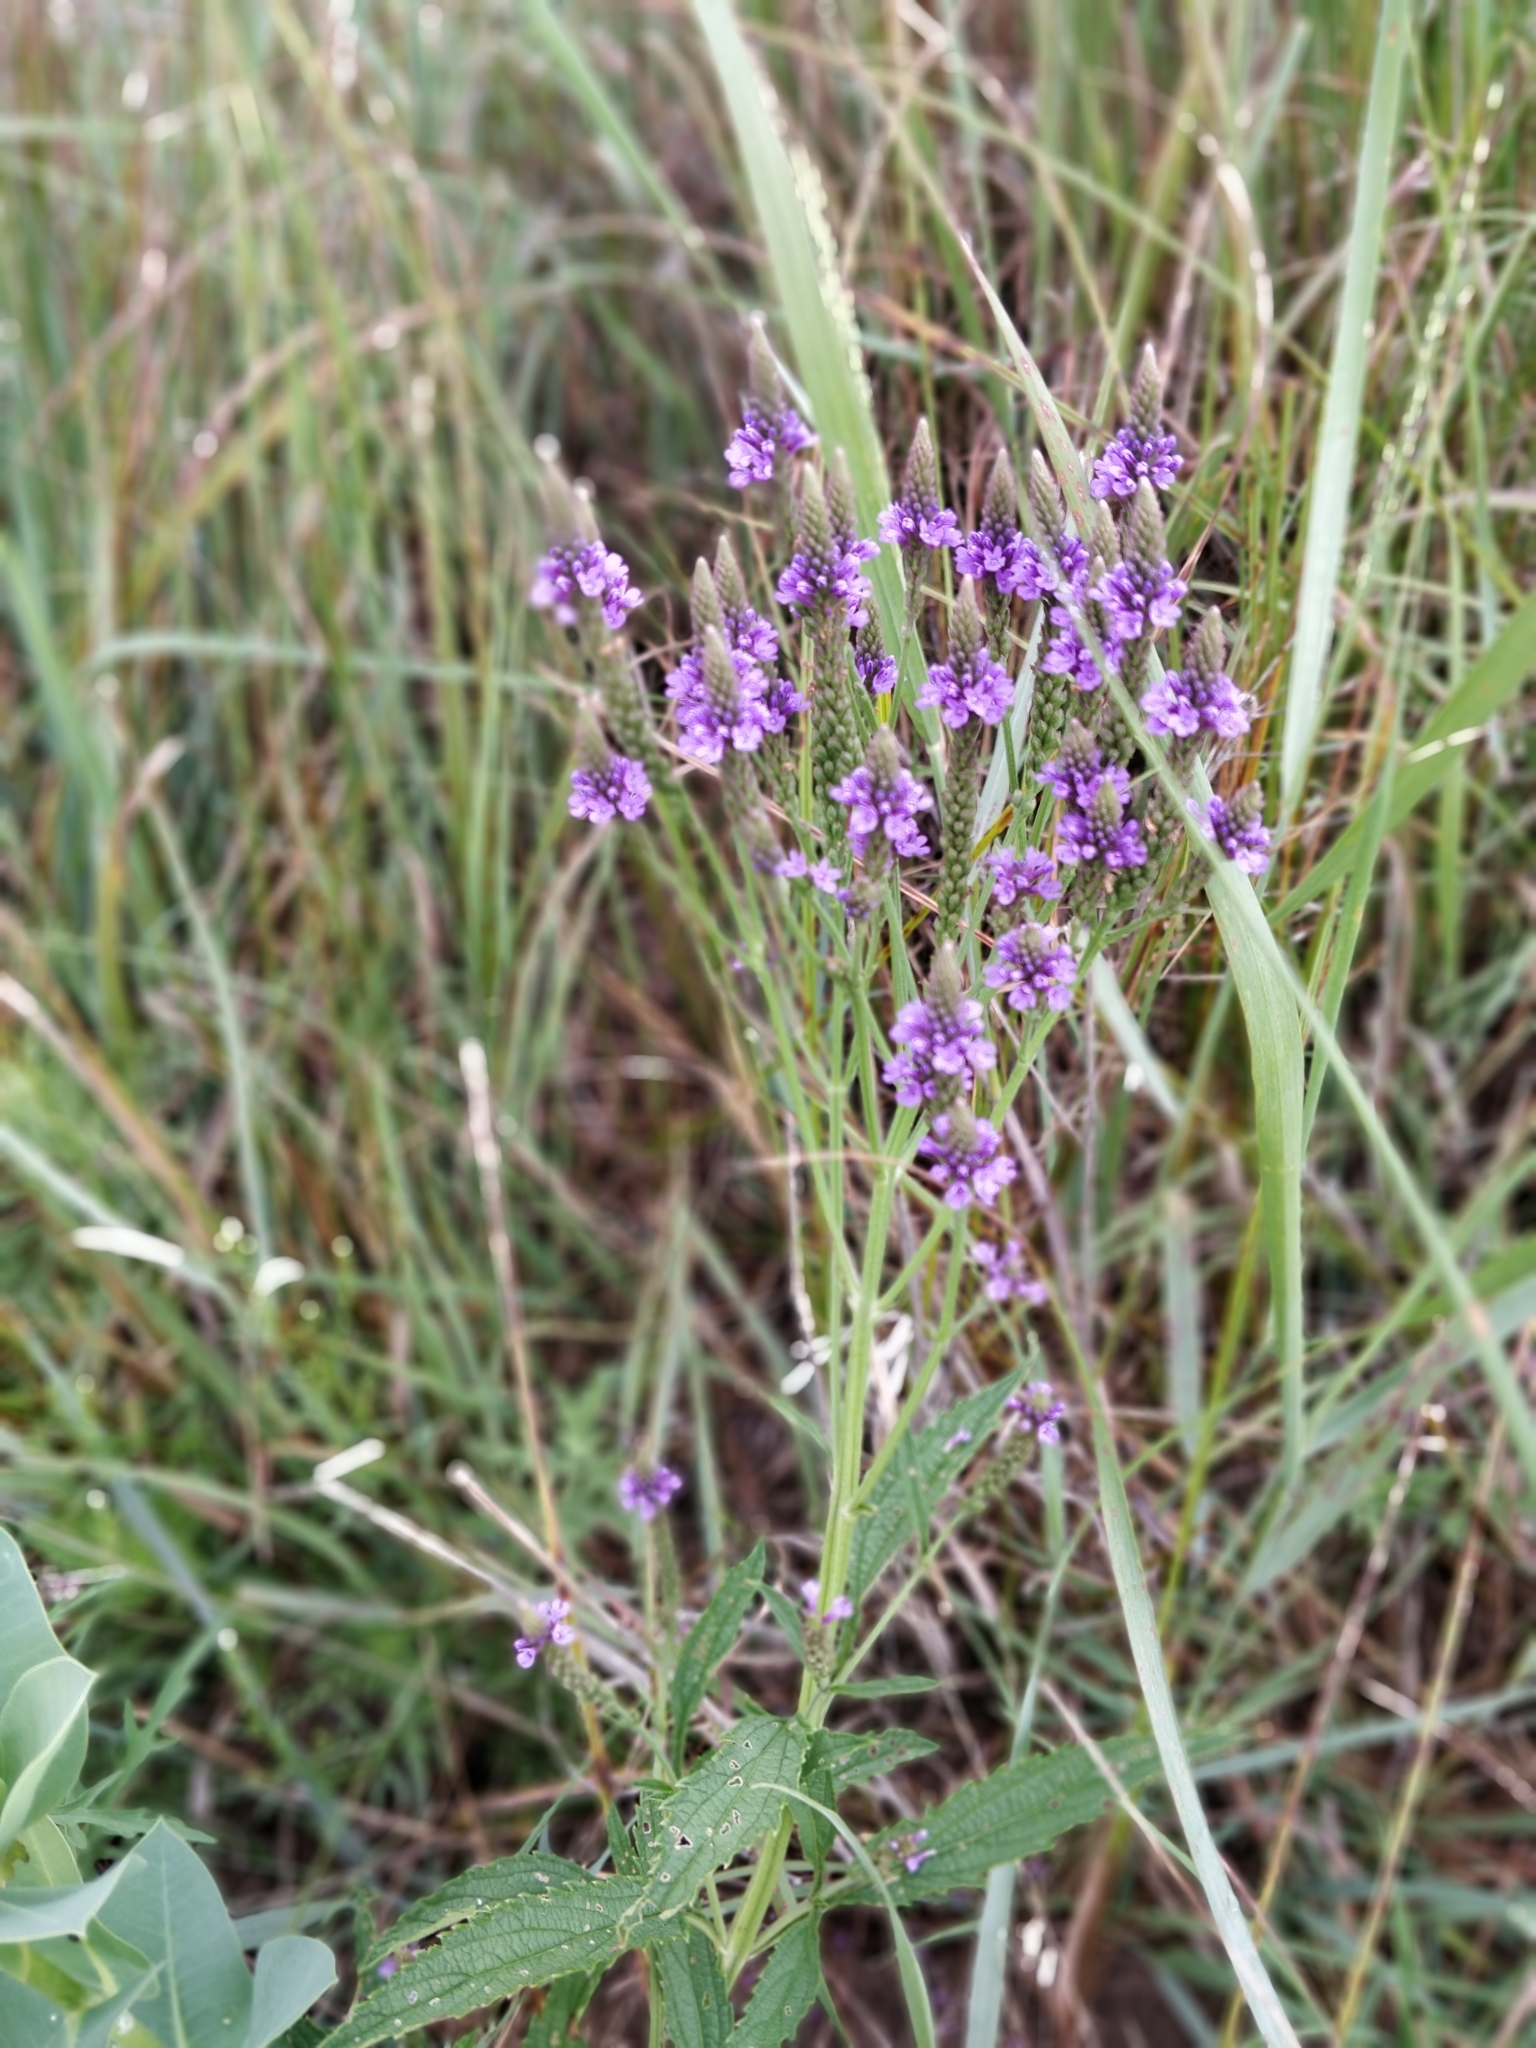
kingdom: Plantae
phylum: Tracheophyta
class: Magnoliopsida
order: Lamiales
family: Verbenaceae
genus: Verbena
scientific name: Verbena hastata
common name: American blue vervain
